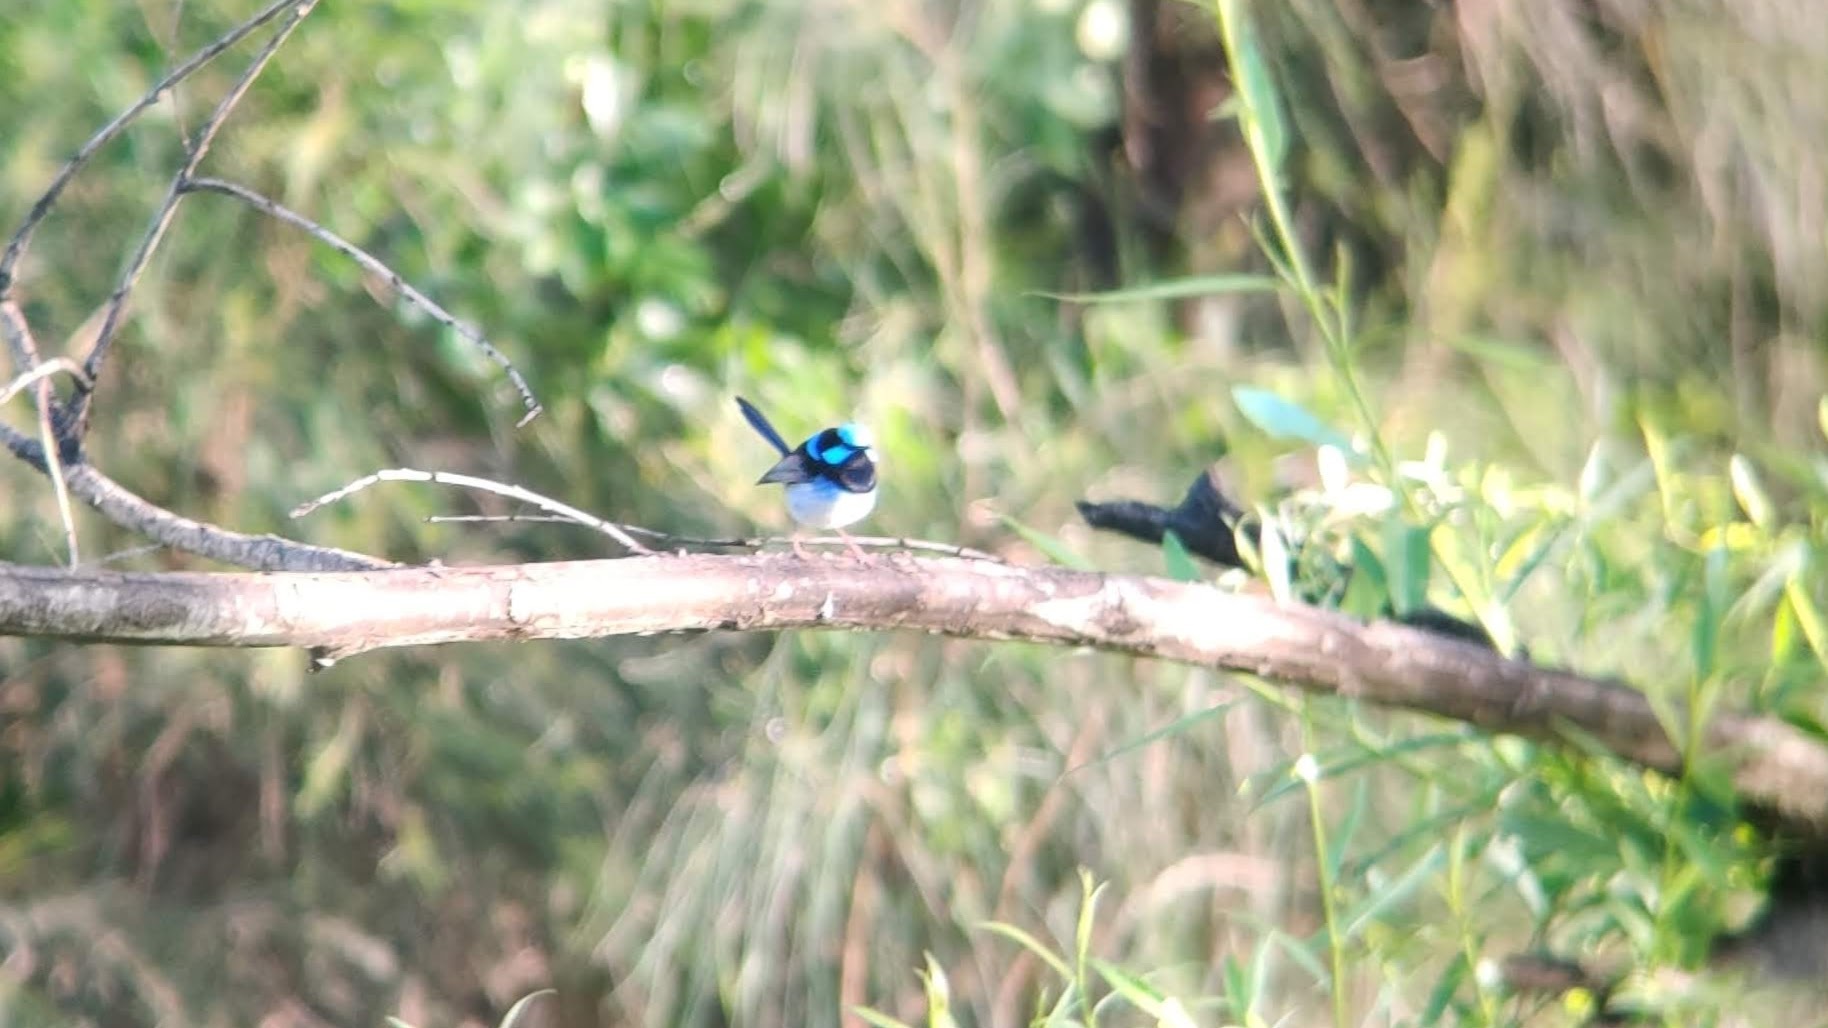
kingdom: Animalia
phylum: Chordata
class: Aves
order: Passeriformes
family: Maluridae
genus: Malurus
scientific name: Malurus cyaneus
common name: Superb fairywren
